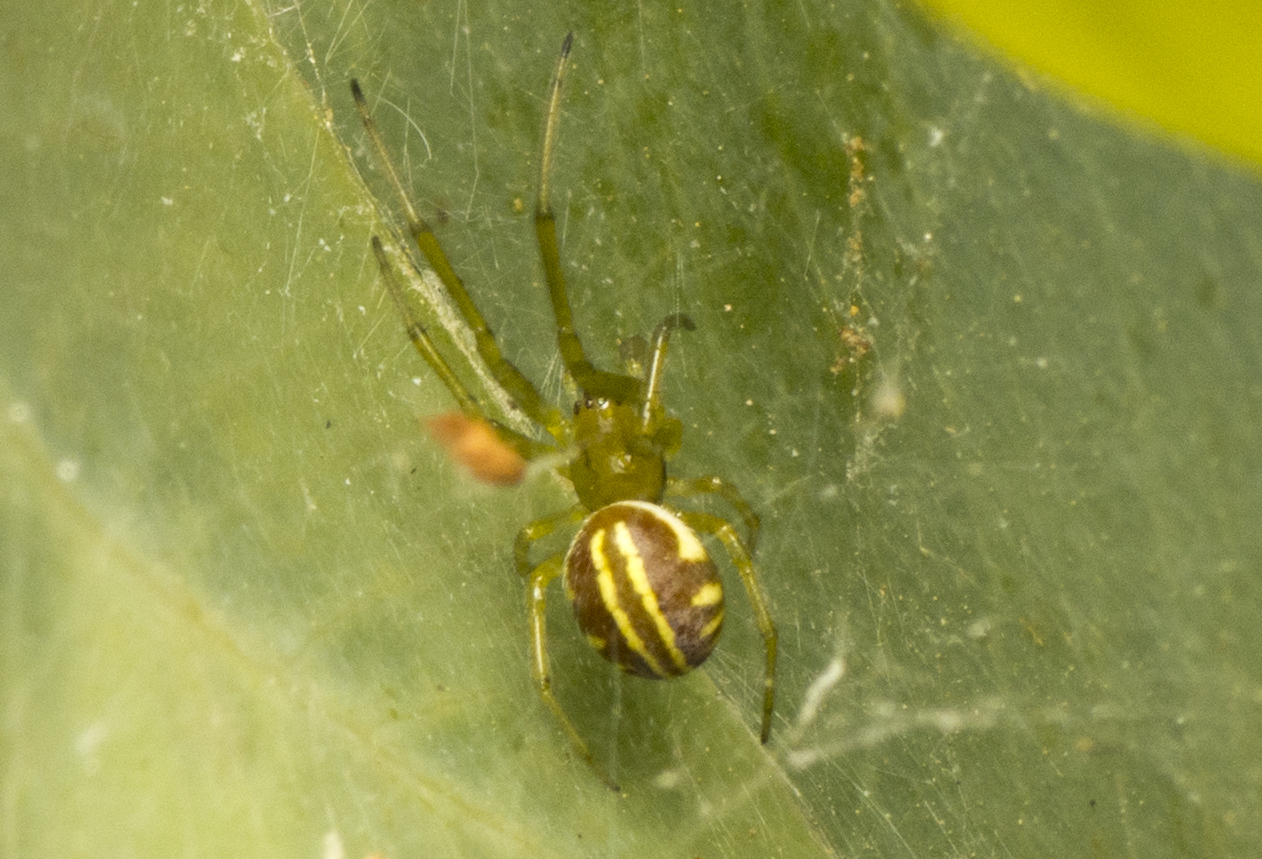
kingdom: Animalia
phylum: Arthropoda
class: Arachnida
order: Araneae
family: Araneidae
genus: Deliochus
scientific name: Deliochus zelivira
